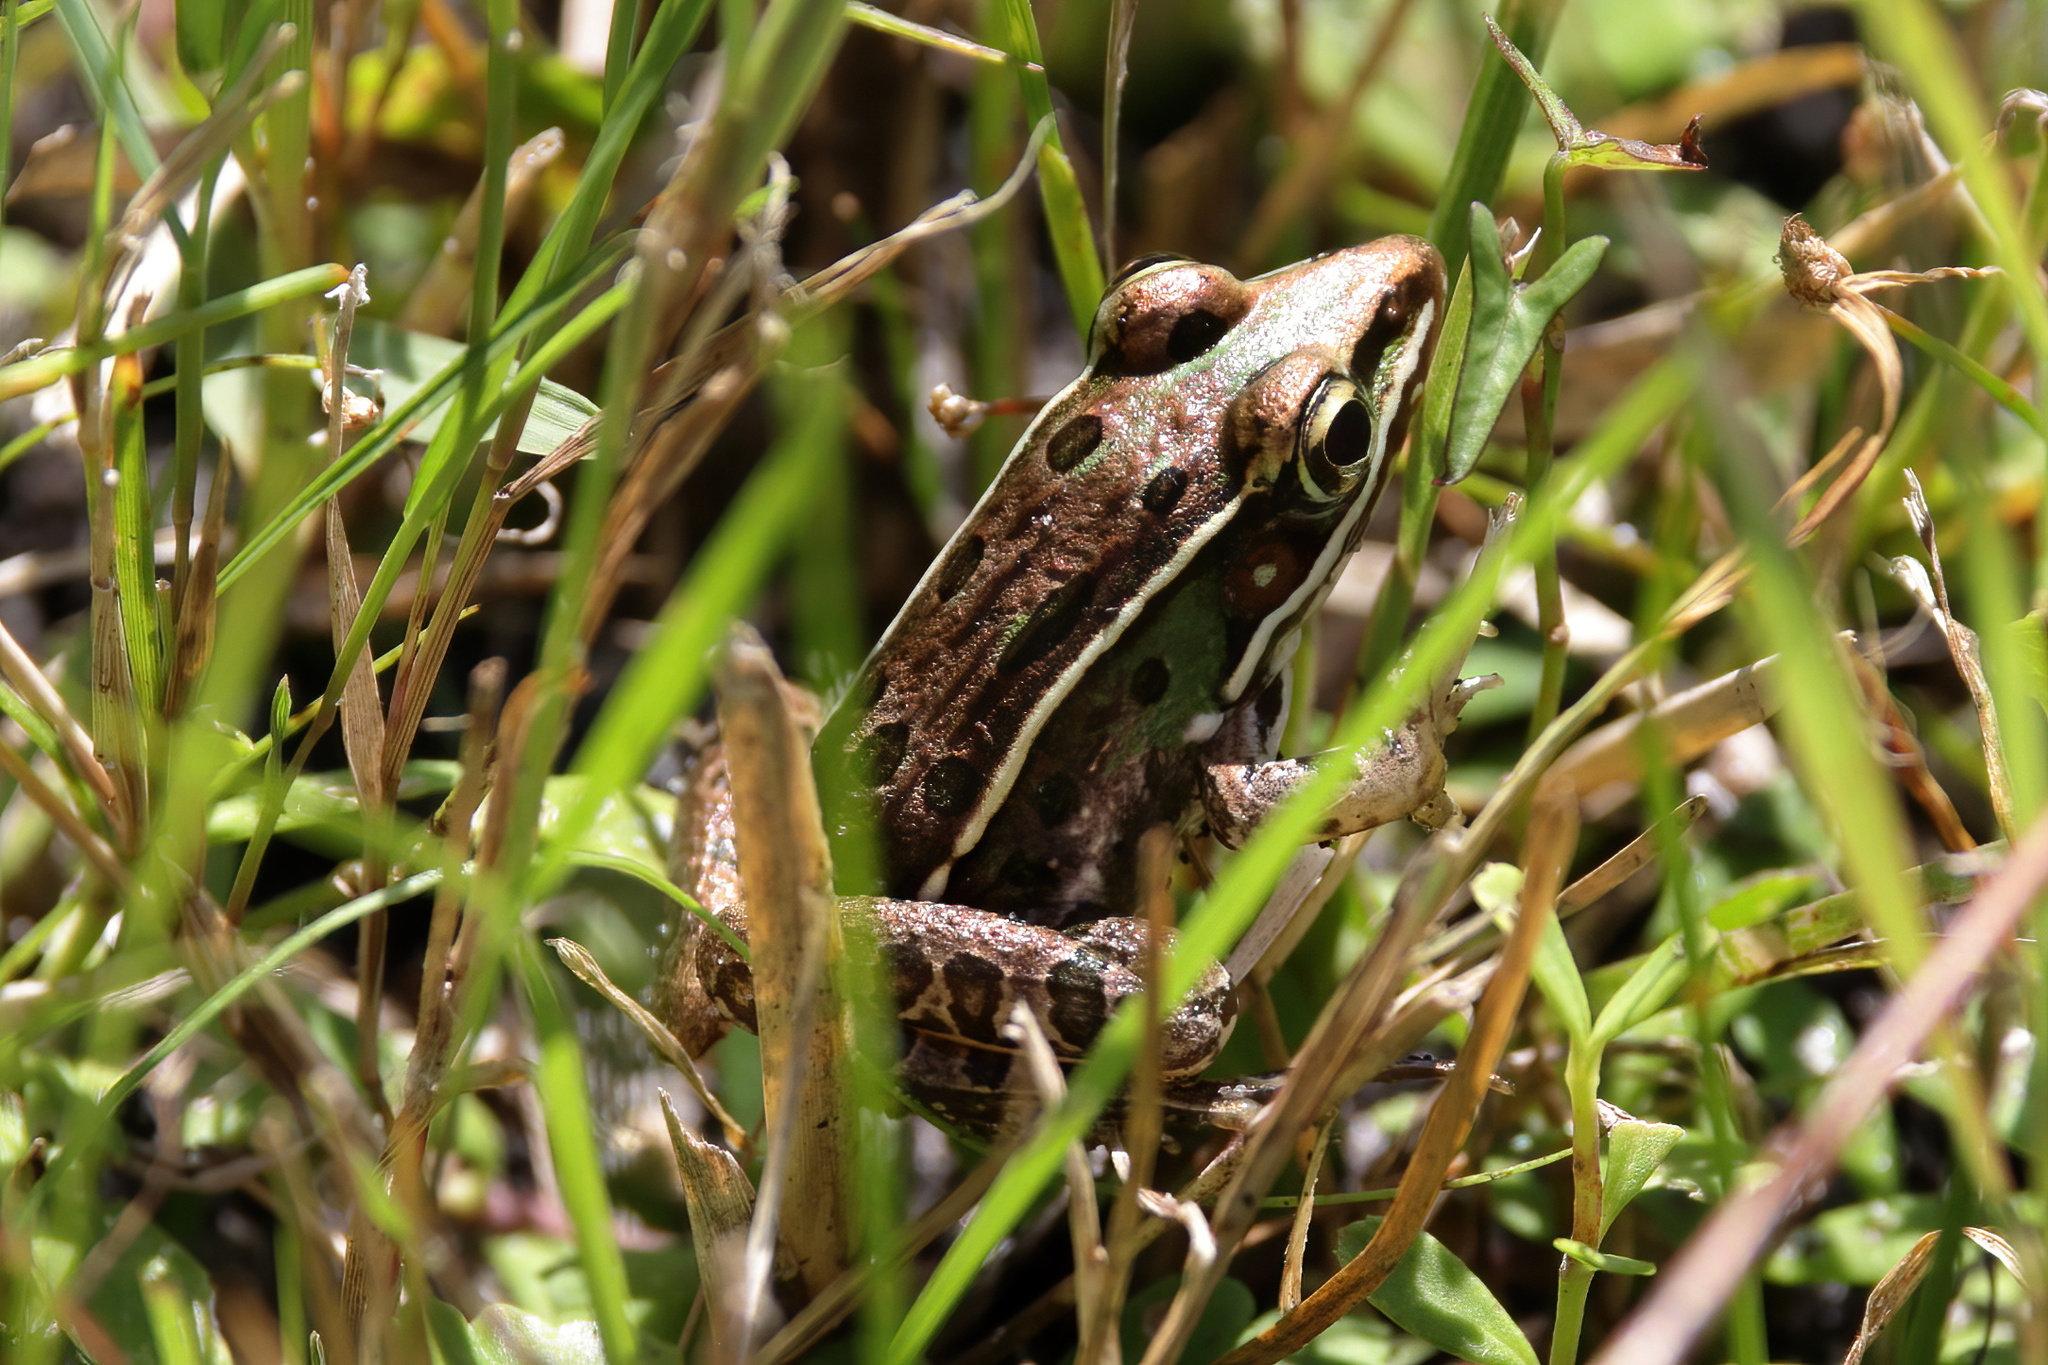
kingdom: Animalia
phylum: Chordata
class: Amphibia
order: Anura
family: Ranidae
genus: Lithobates
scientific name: Lithobates sphenocephalus
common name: Southern leopard frog
